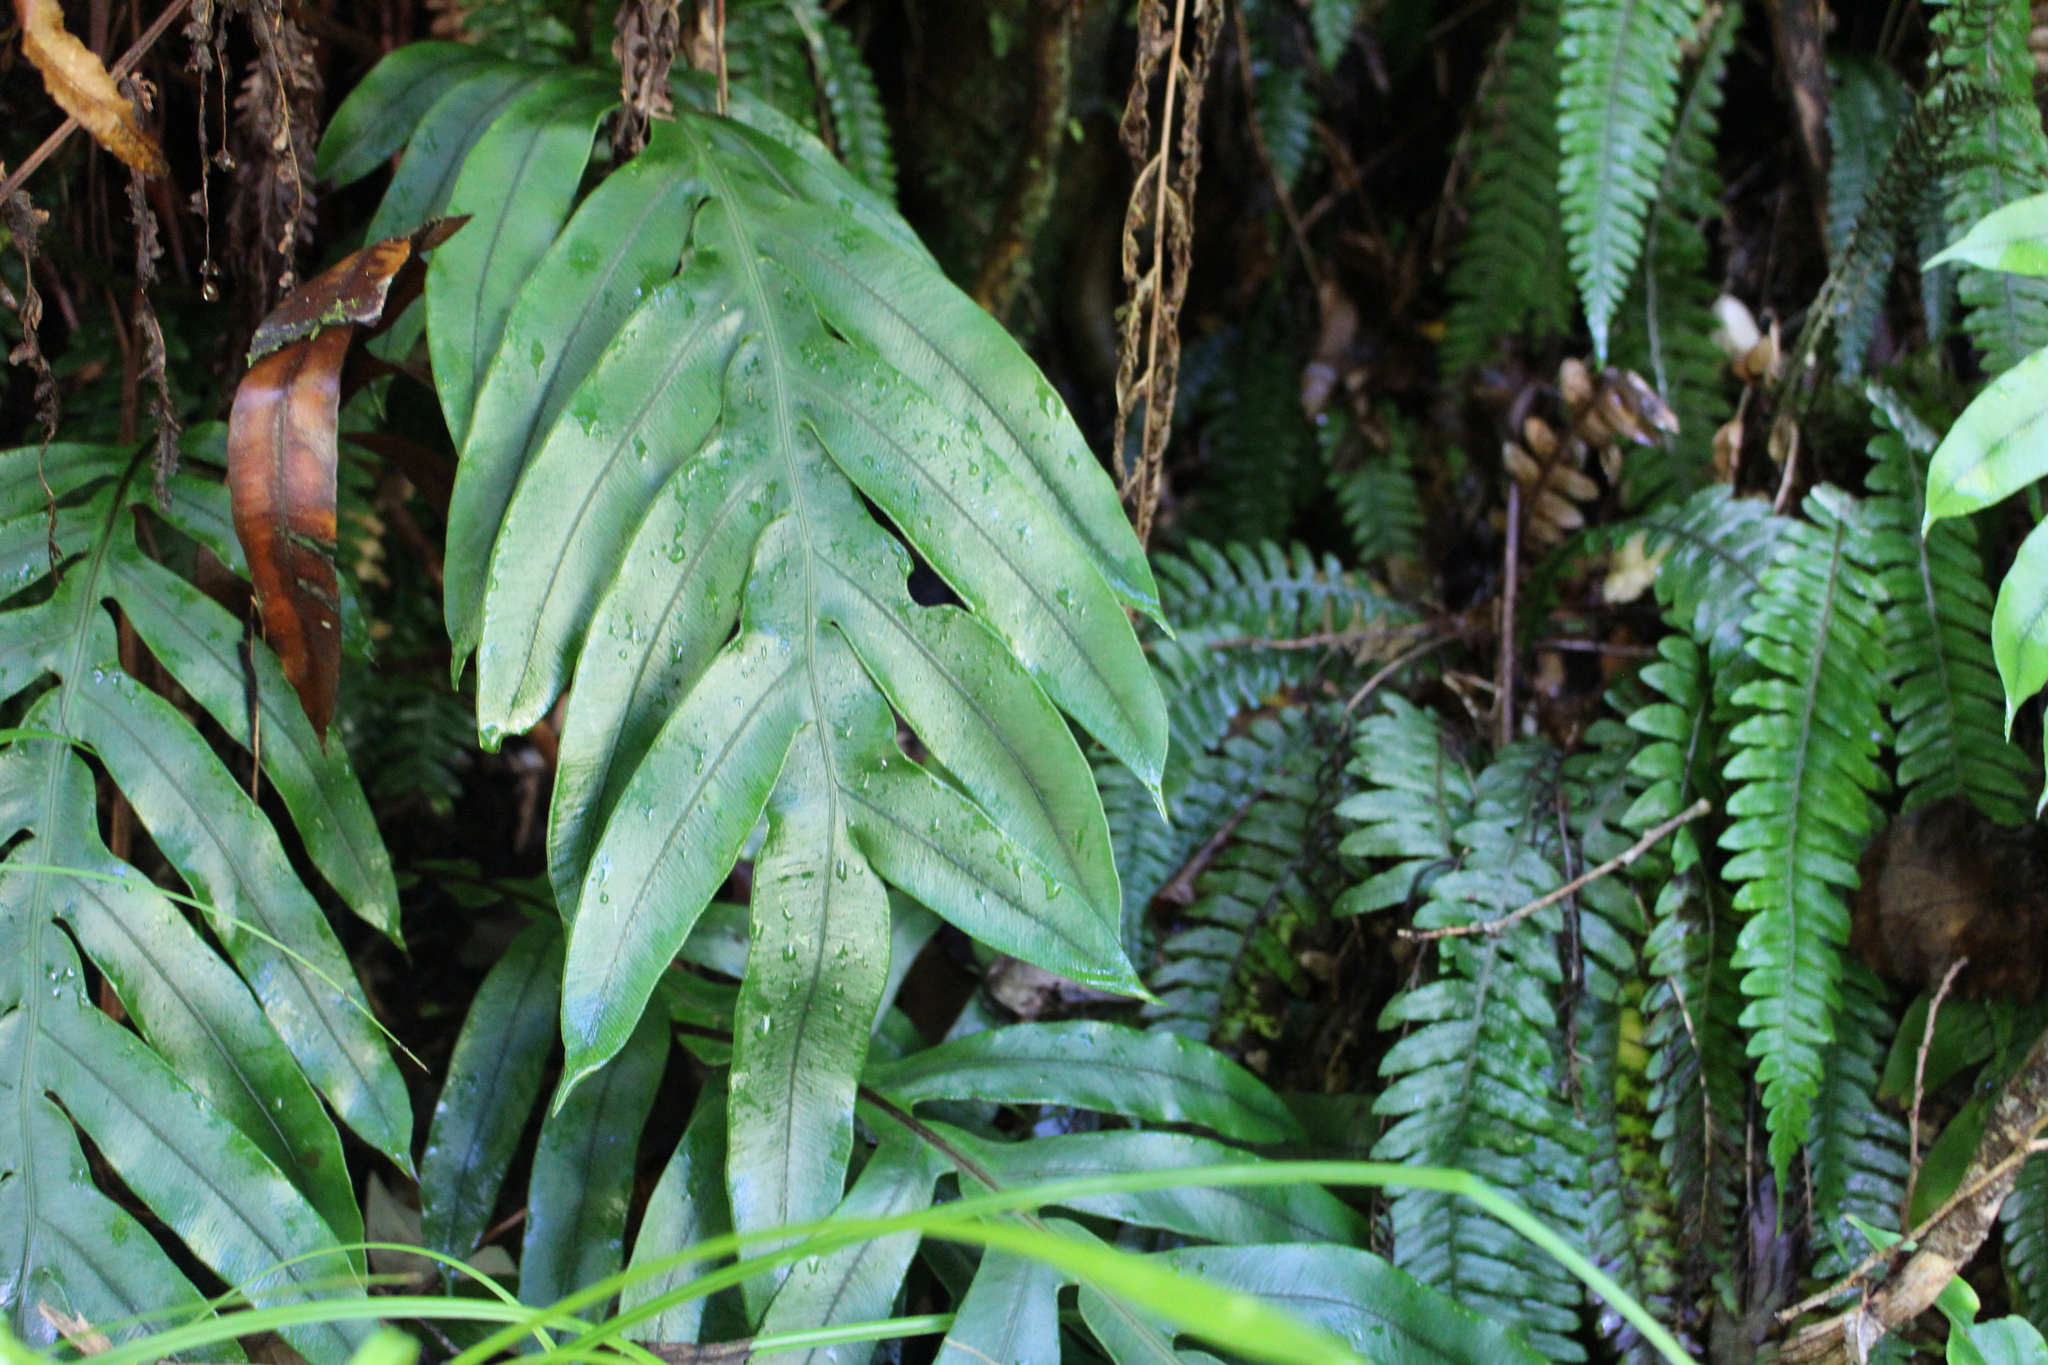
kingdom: Plantae
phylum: Tracheophyta
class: Polypodiopsida
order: Polypodiales
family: Blechnaceae
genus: Austroblechnum
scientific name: Austroblechnum colensoi
